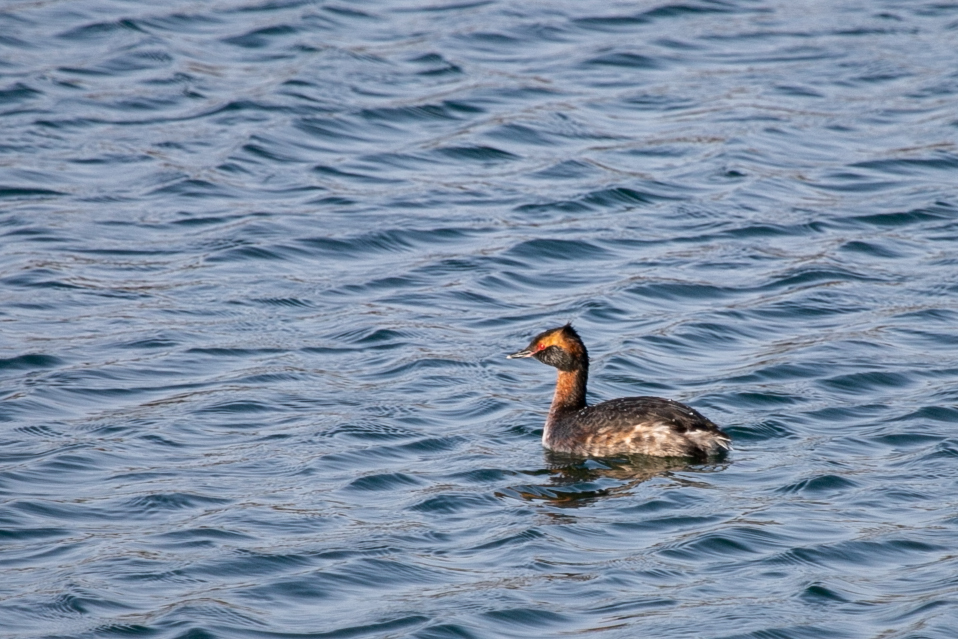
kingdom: Animalia
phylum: Chordata
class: Aves
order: Podicipediformes
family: Podicipedidae
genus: Podiceps
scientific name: Podiceps auritus
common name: Horned grebe
